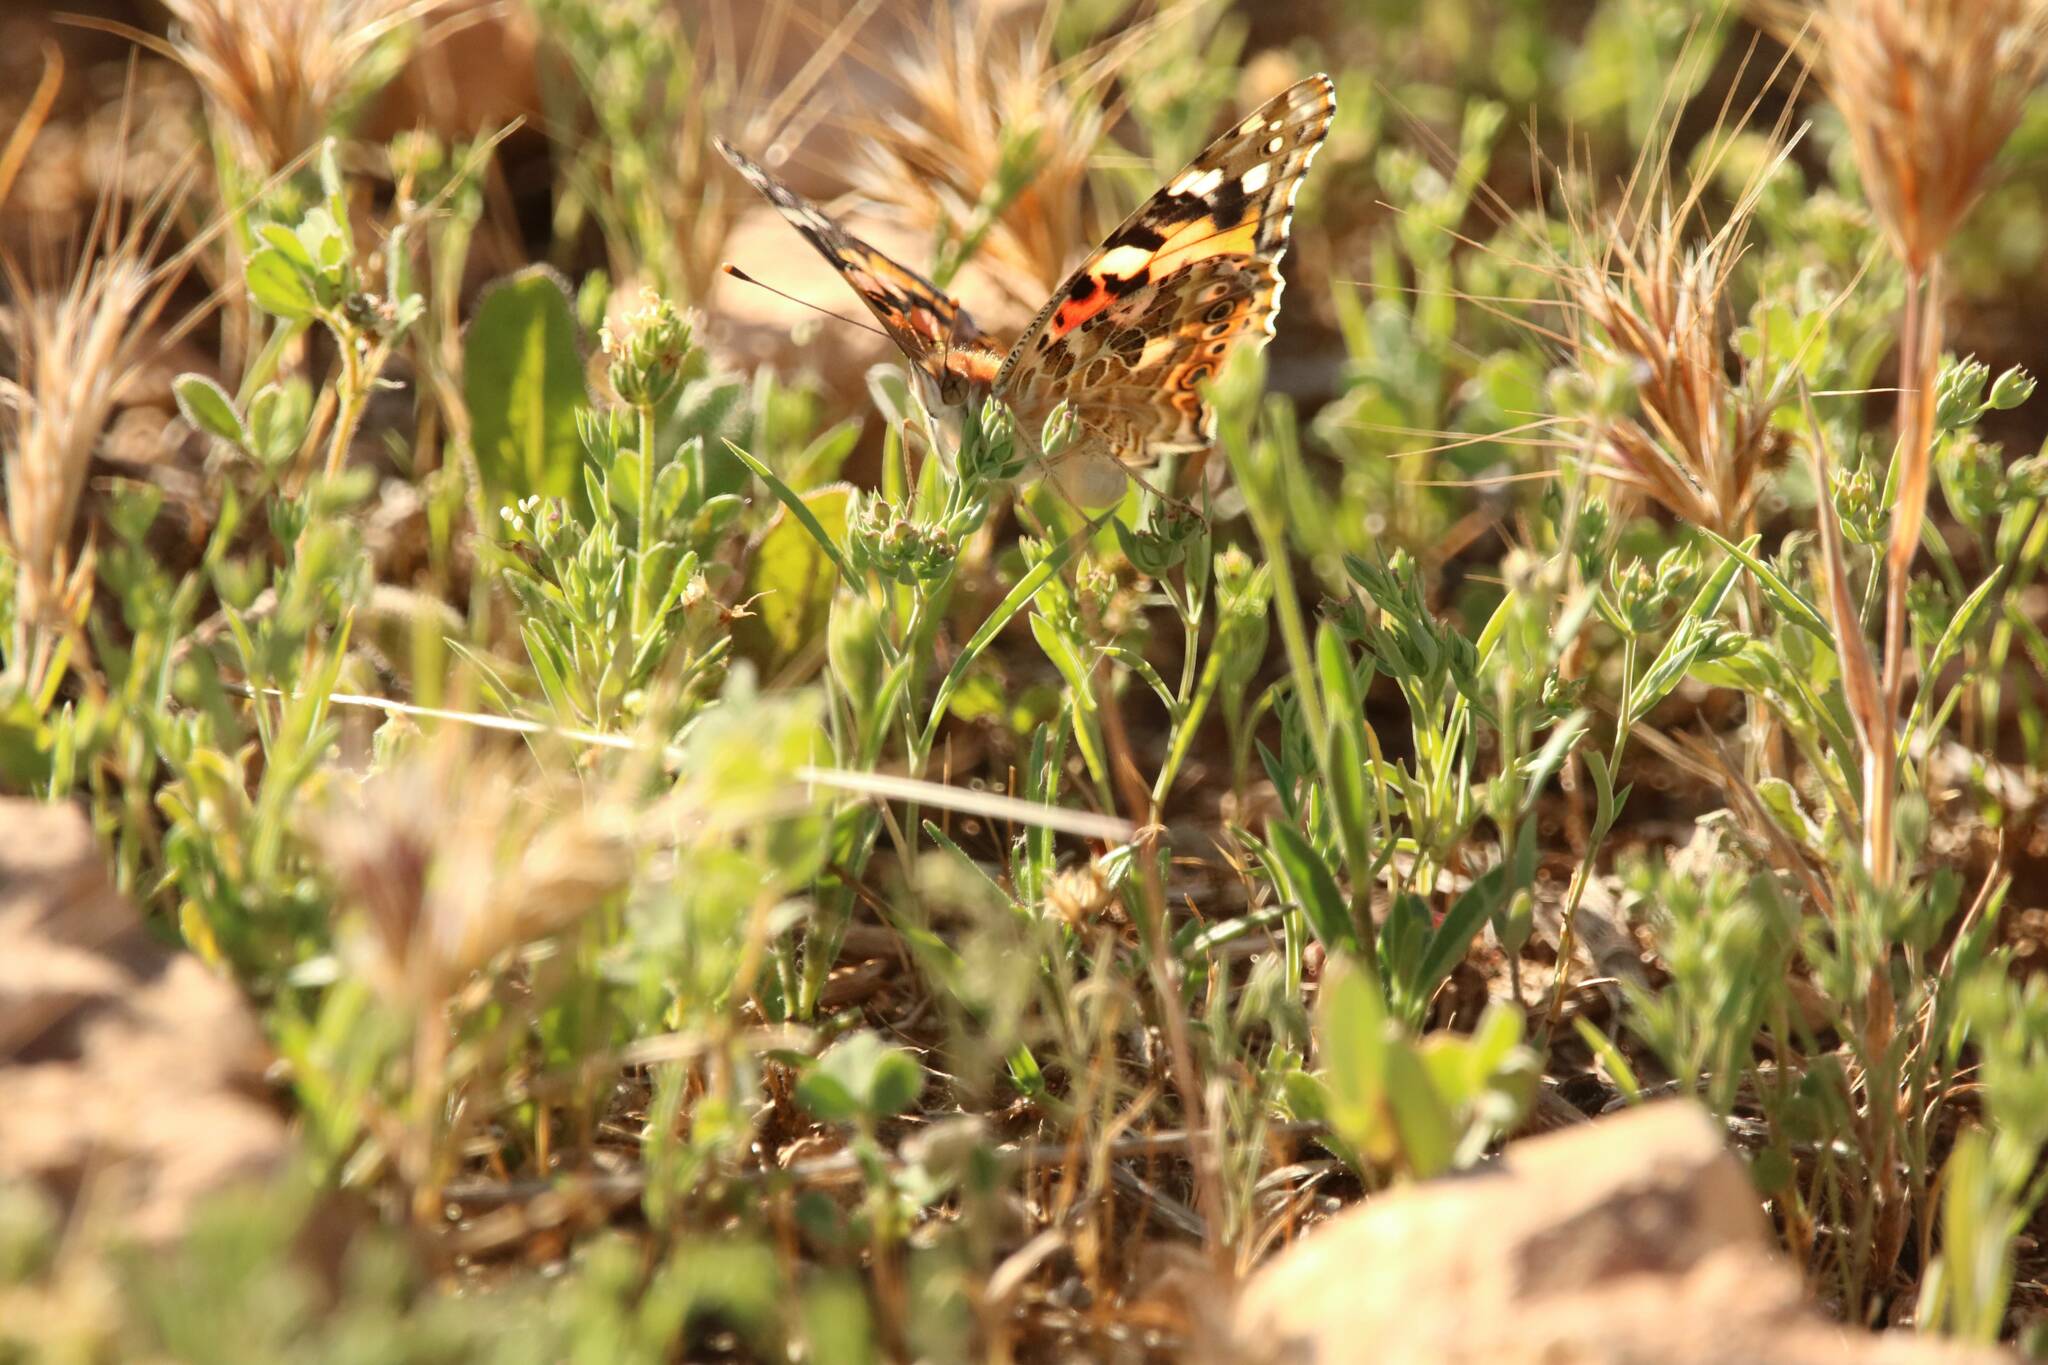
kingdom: Animalia
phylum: Arthropoda
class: Insecta
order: Lepidoptera
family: Nymphalidae
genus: Vanessa
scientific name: Vanessa cardui
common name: Painted lady
